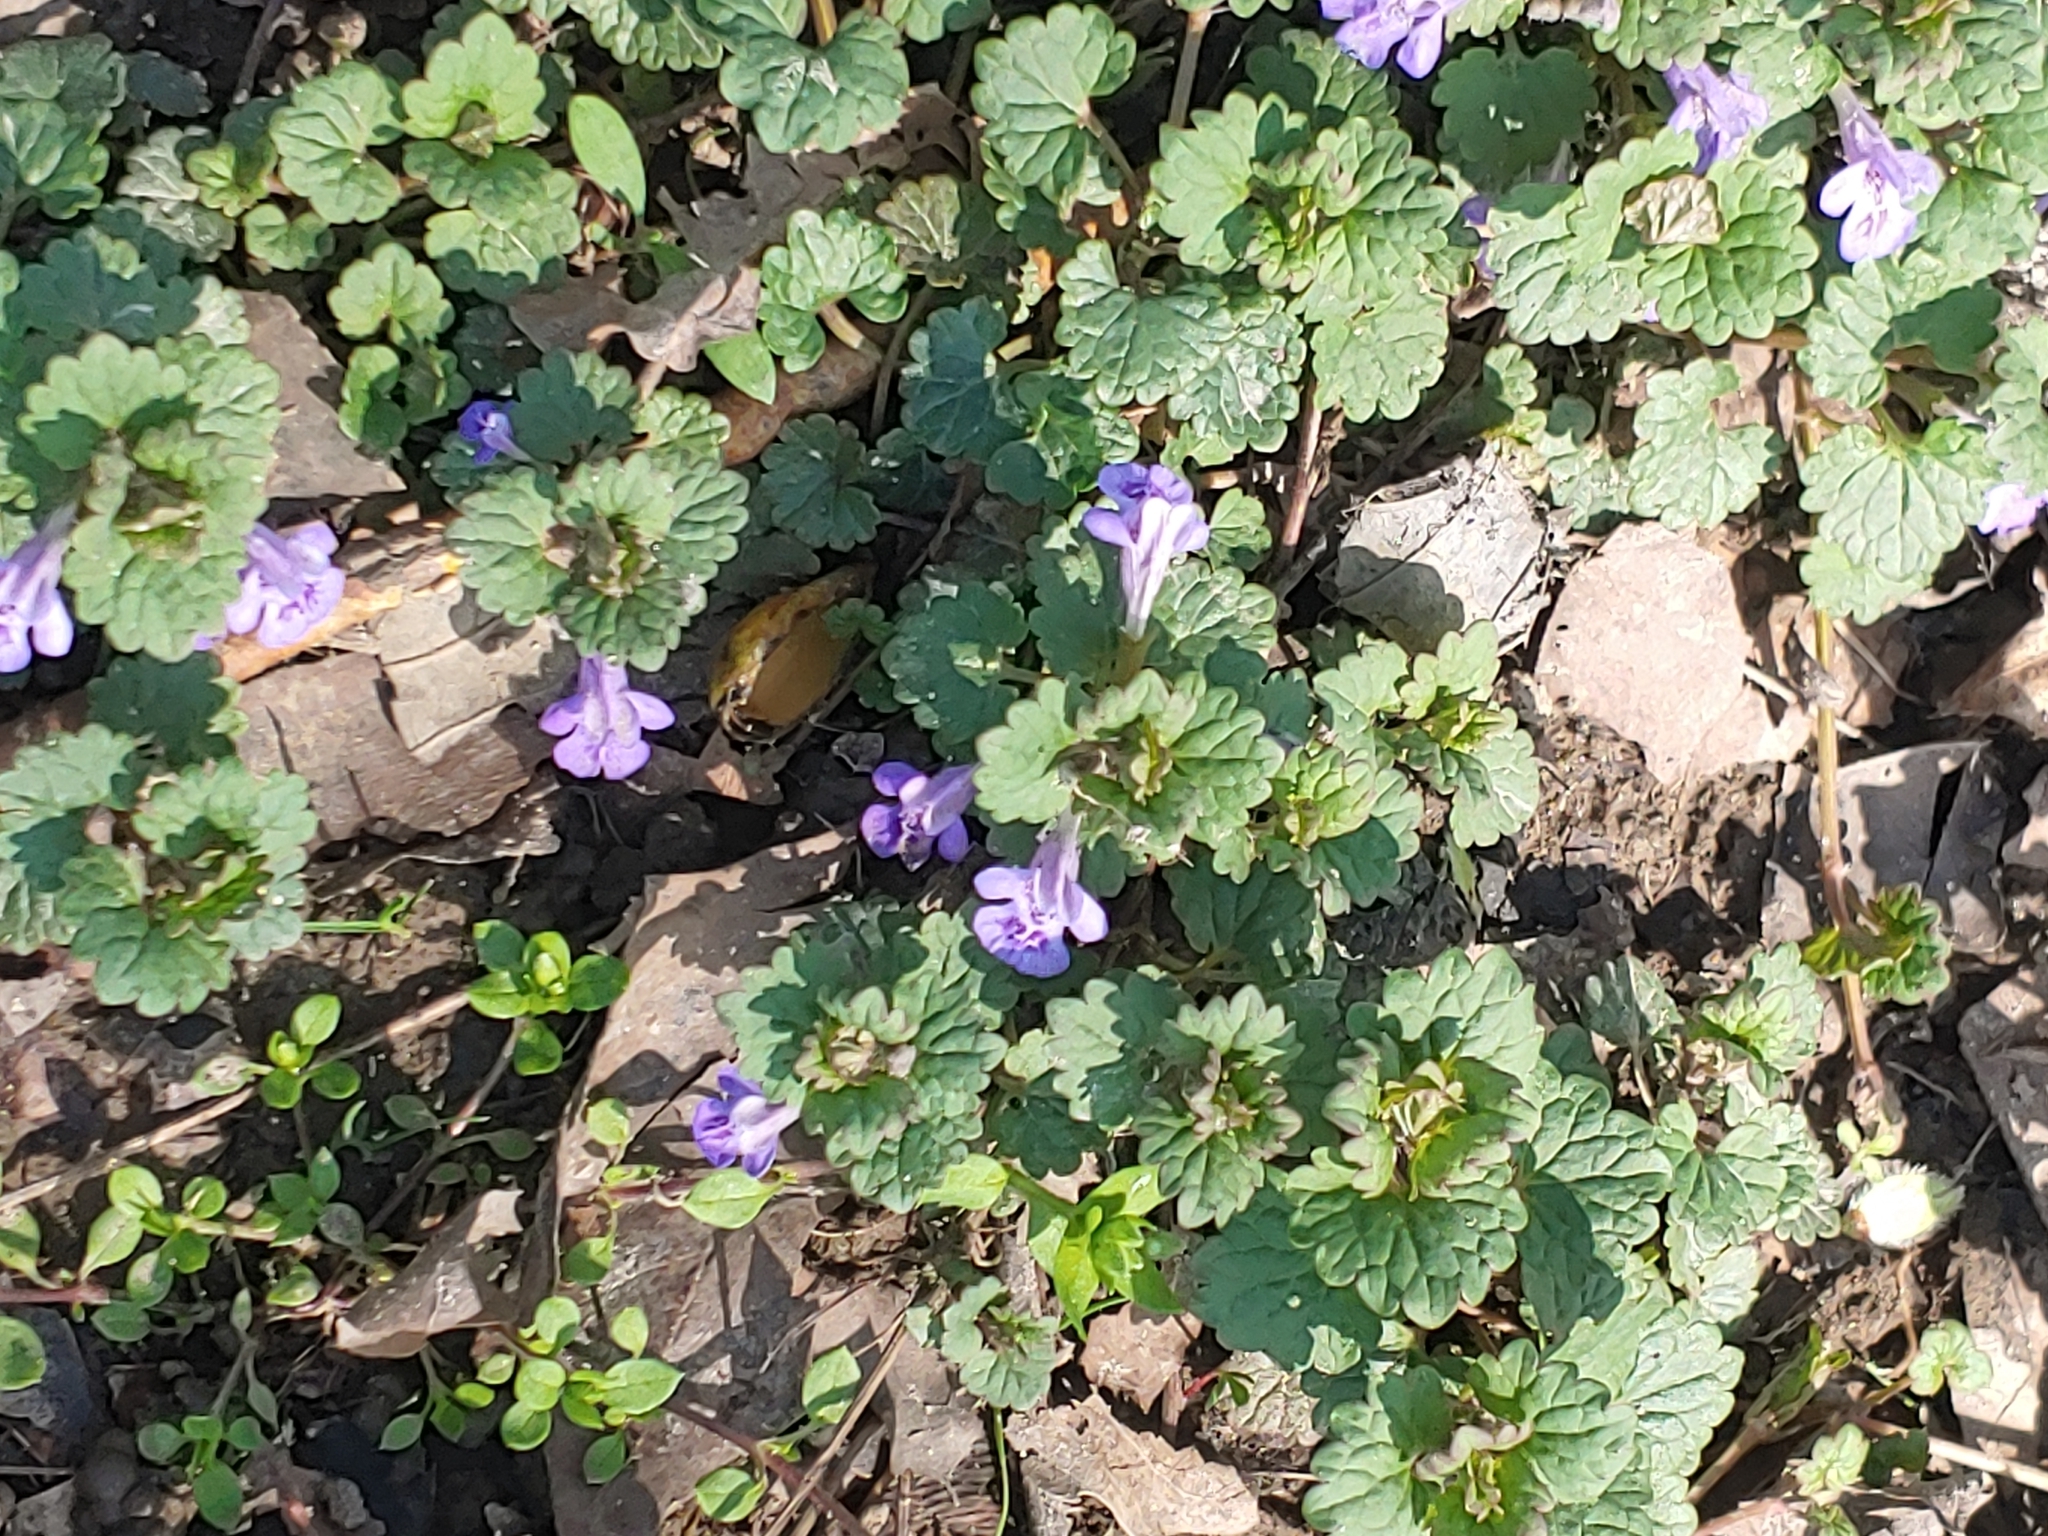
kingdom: Plantae
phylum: Tracheophyta
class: Magnoliopsida
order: Lamiales
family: Lamiaceae
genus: Glechoma
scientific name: Glechoma hederacea
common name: Ground ivy
